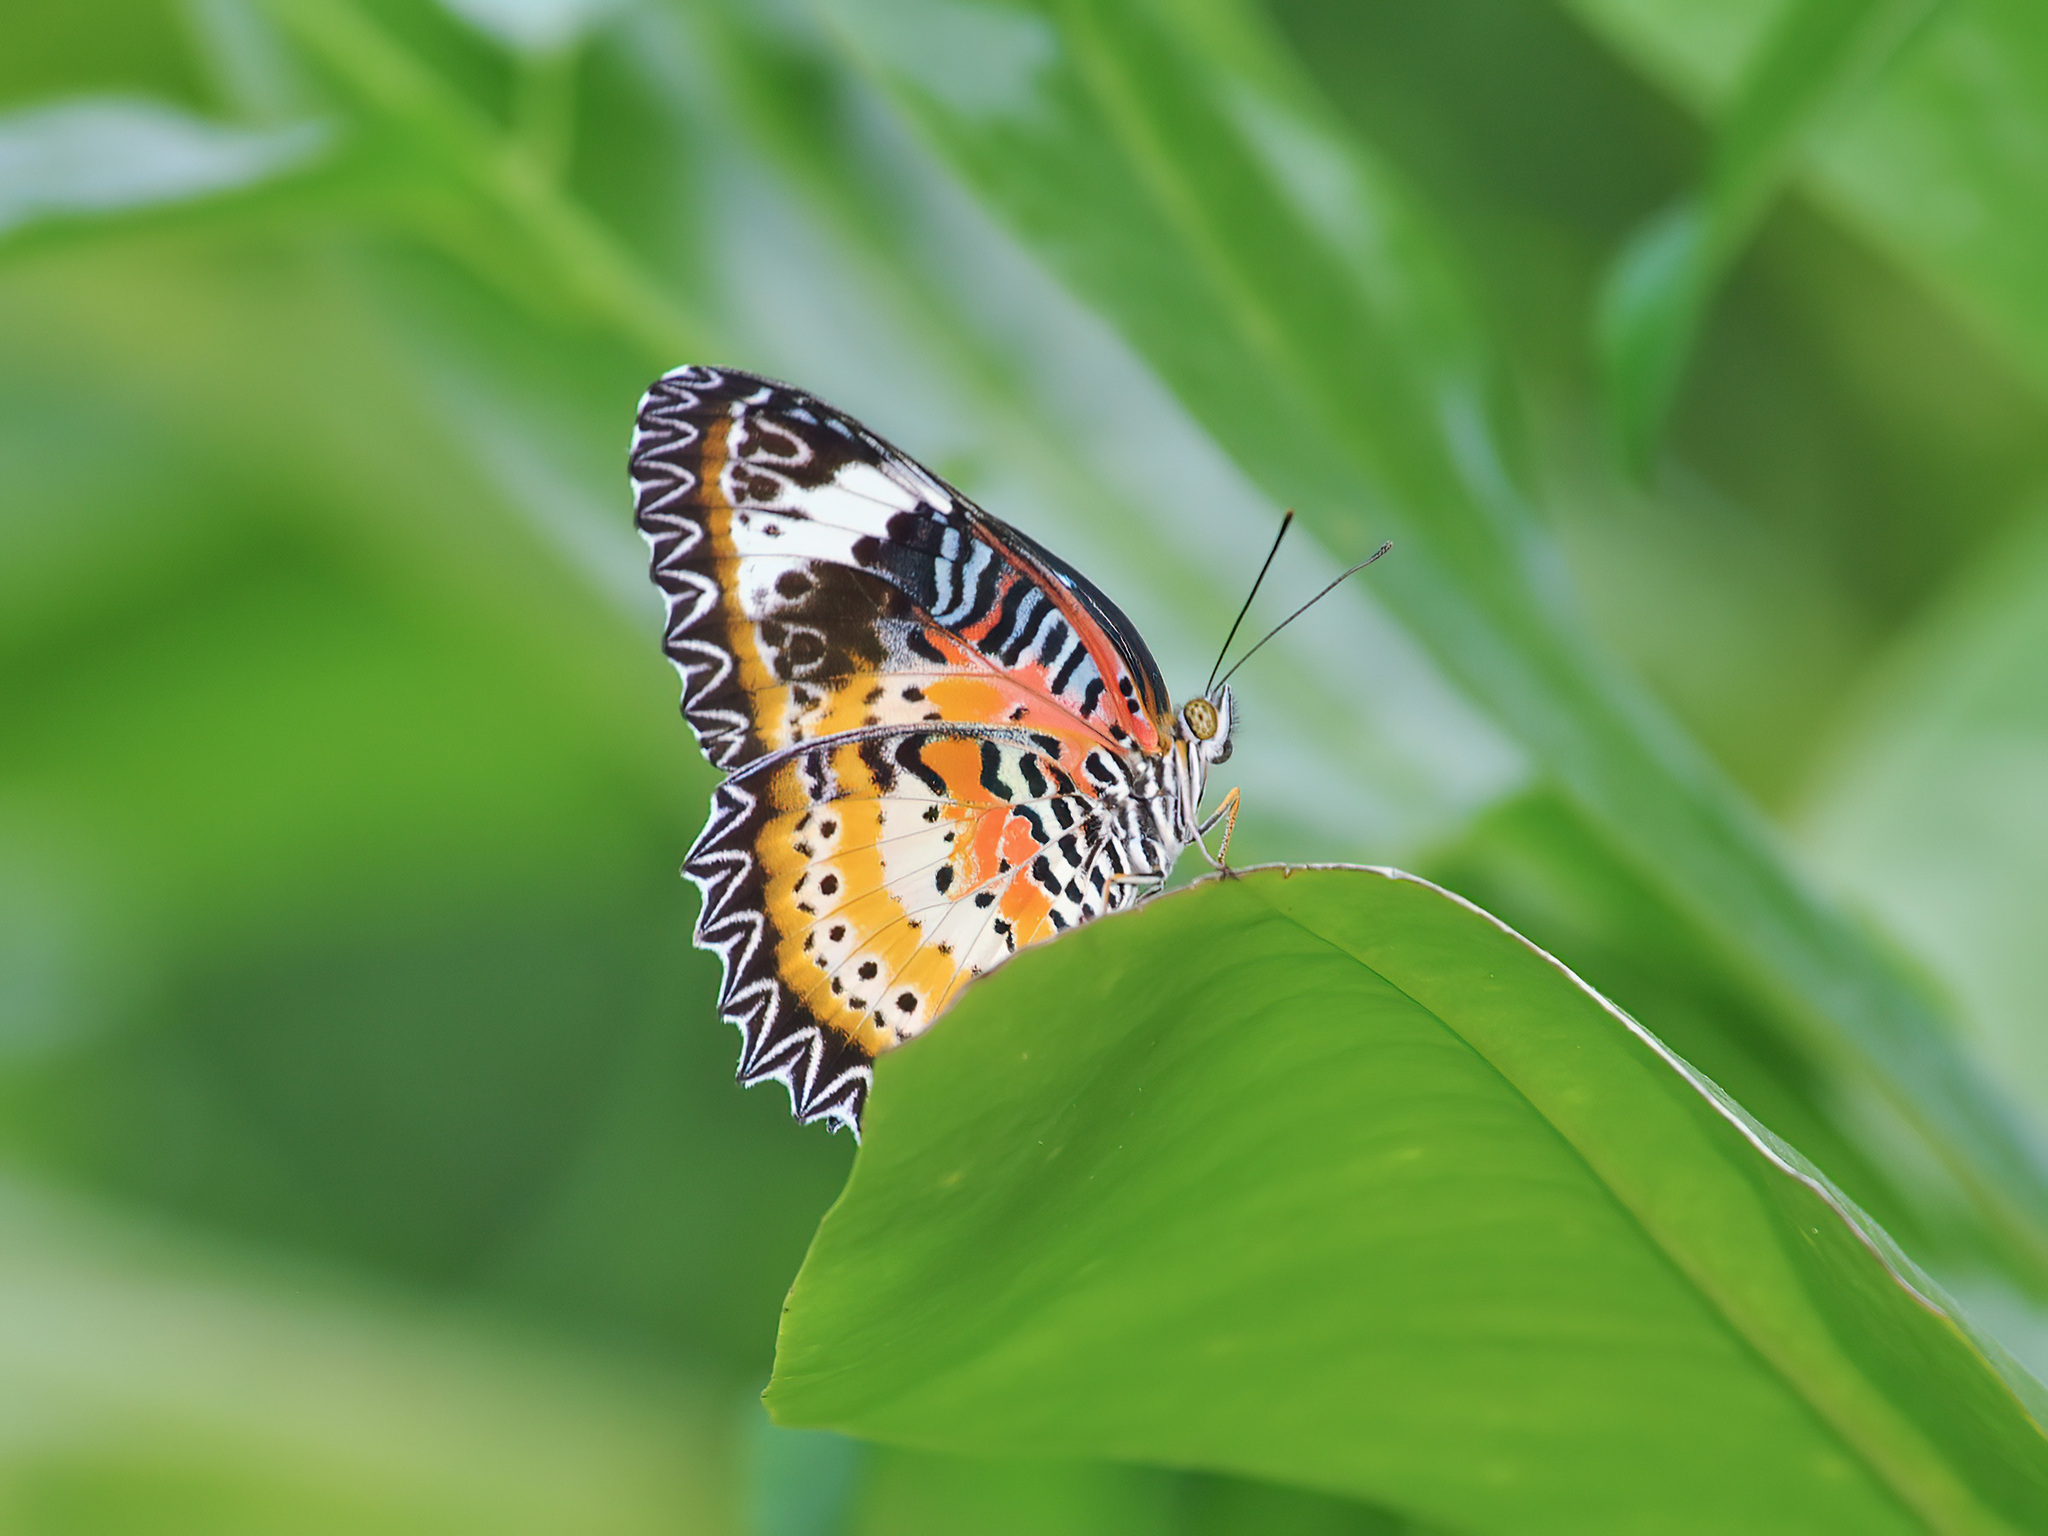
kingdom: Animalia
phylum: Arthropoda
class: Insecta
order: Lepidoptera
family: Nymphalidae
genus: Cethosia
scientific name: Cethosia cyane
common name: Leopard lacewing butterfly
